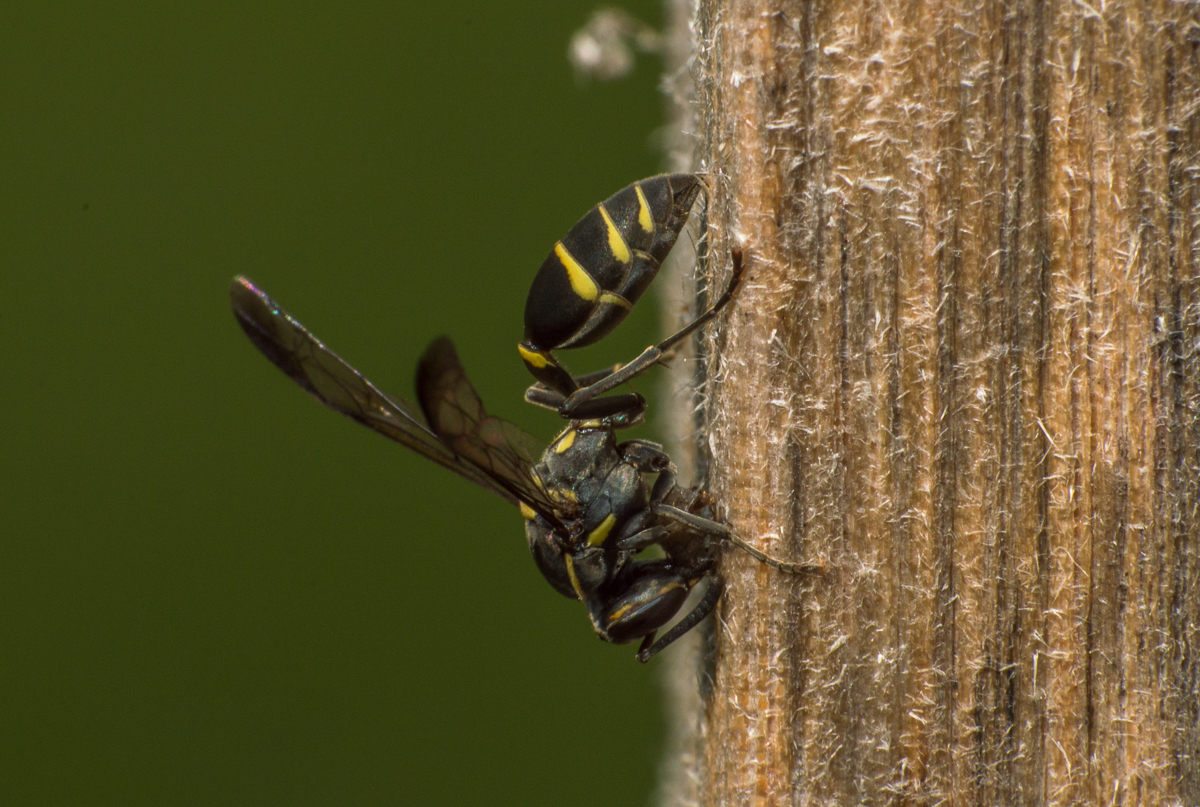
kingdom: Animalia
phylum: Arthropoda
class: Insecta
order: Hymenoptera
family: Eumenidae
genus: Polybia
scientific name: Polybia occidentalis
